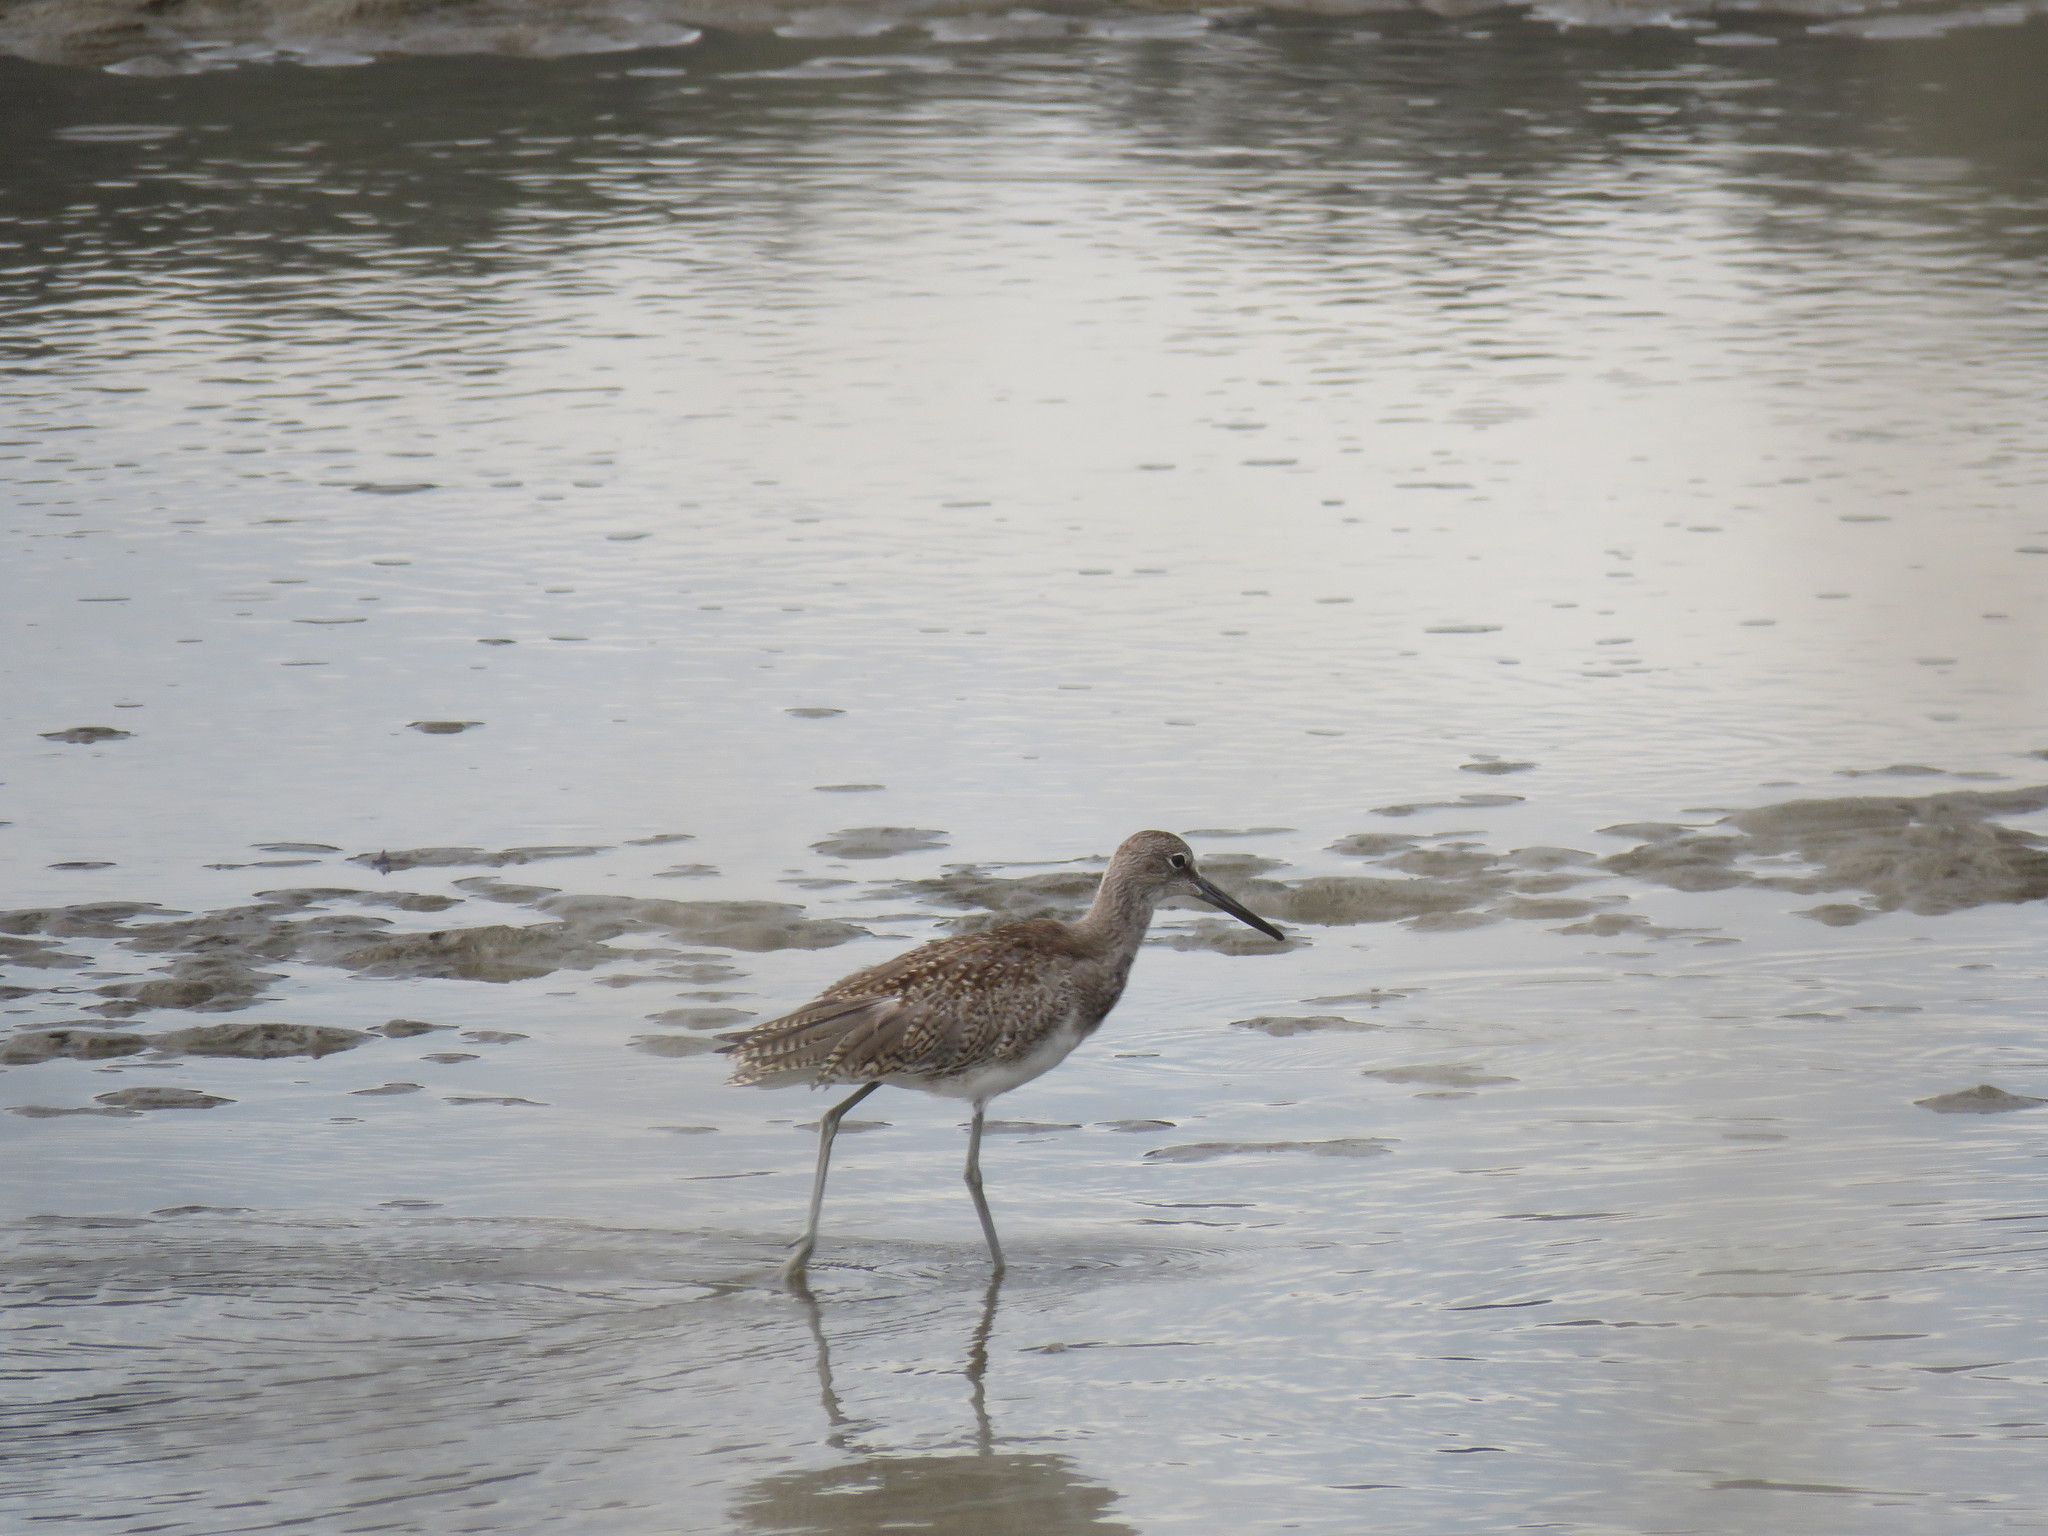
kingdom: Animalia
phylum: Chordata
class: Aves
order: Charadriiformes
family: Scolopacidae
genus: Tringa
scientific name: Tringa semipalmata
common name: Willet
